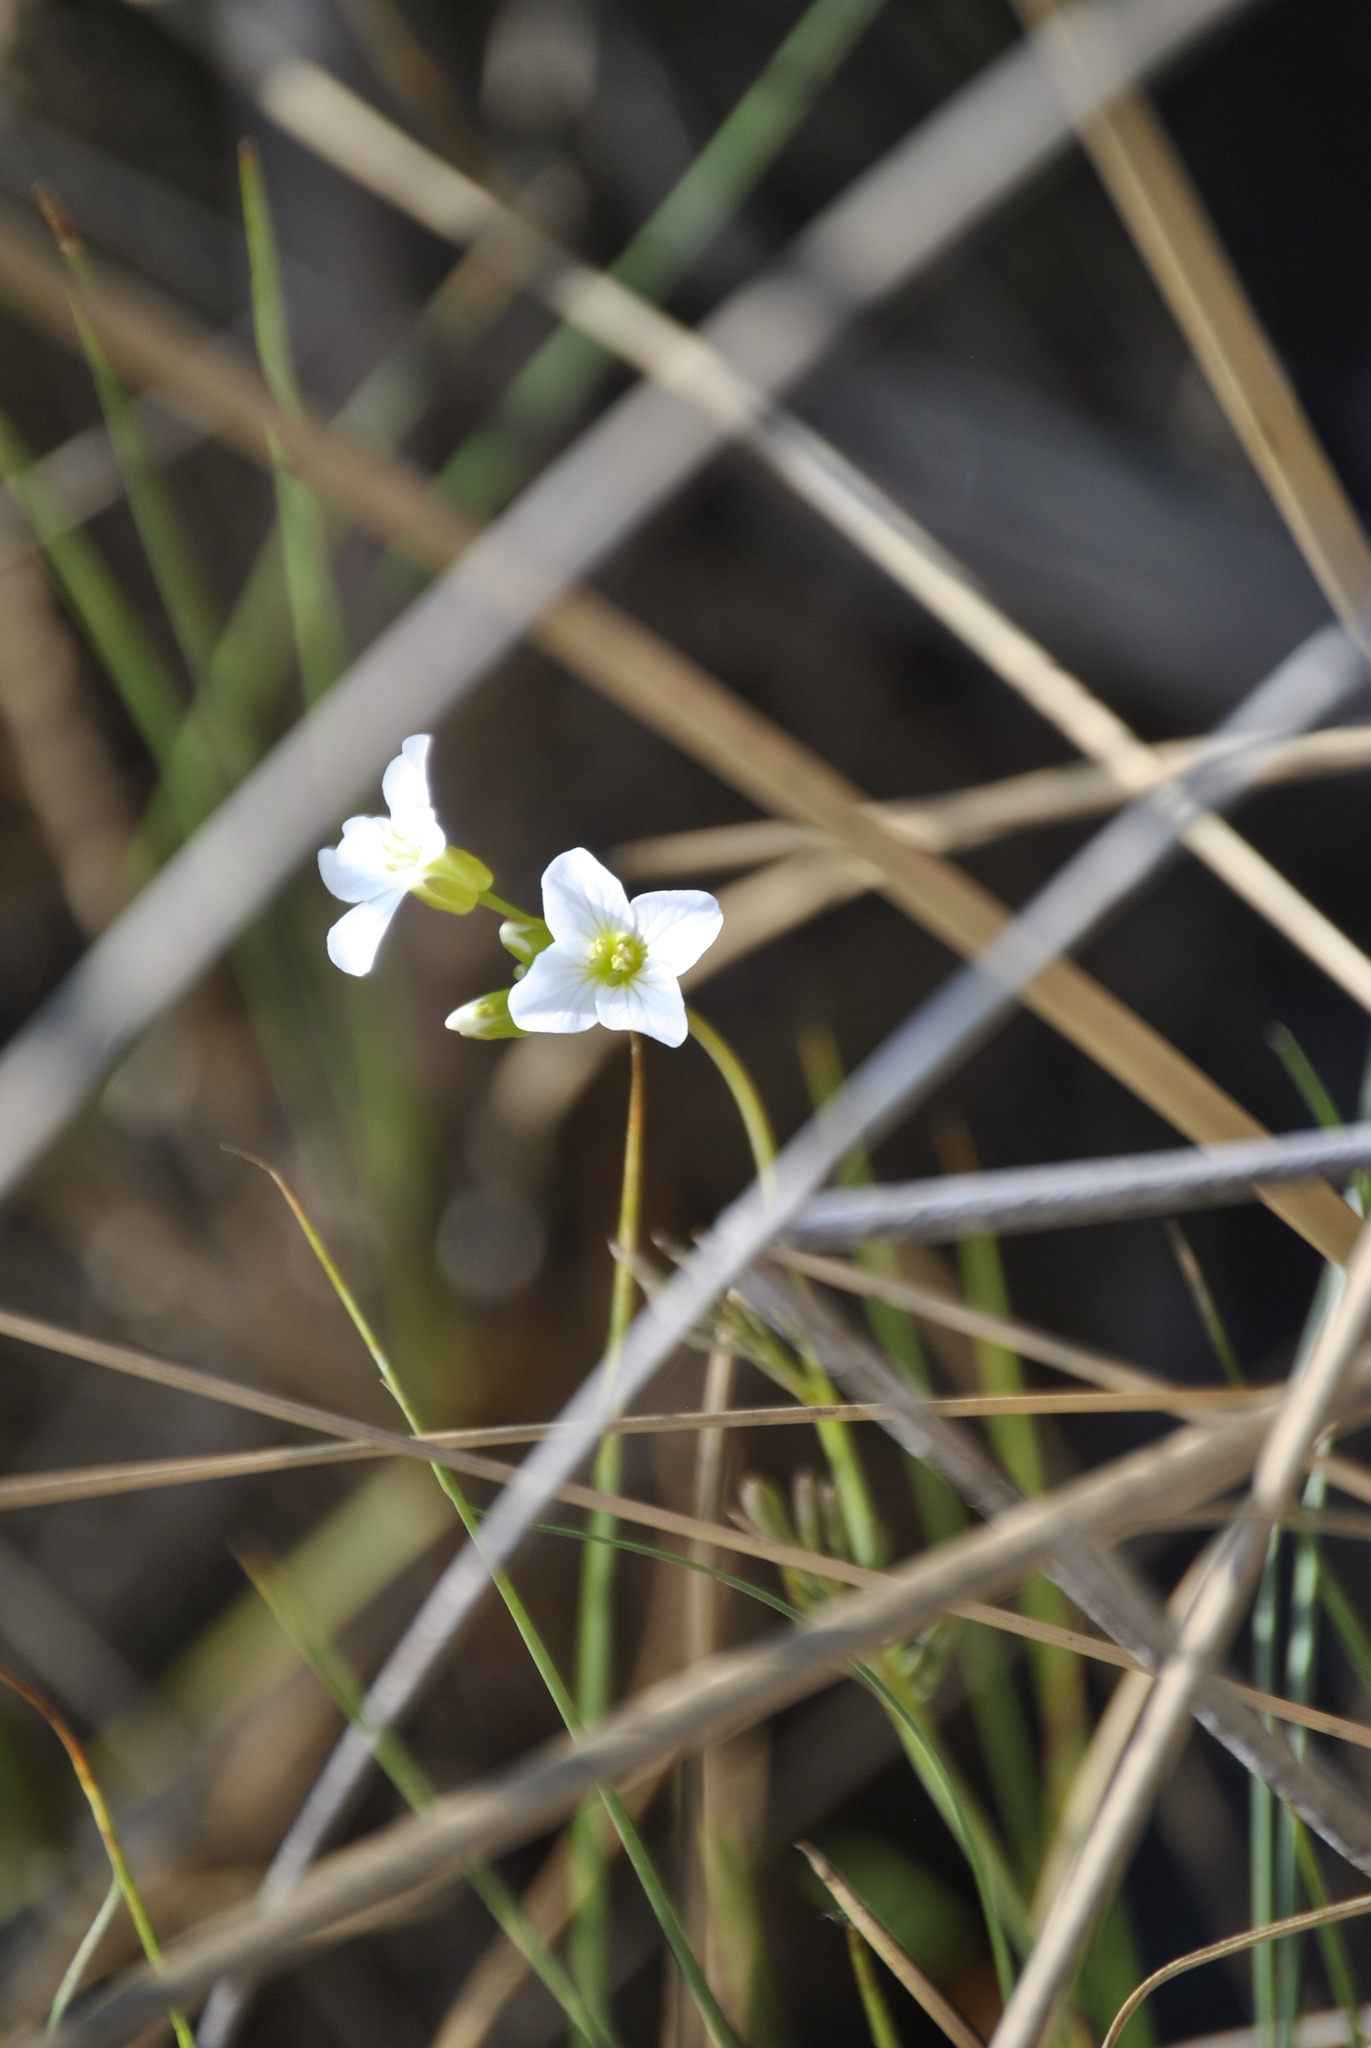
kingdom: Plantae
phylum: Tracheophyta
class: Magnoliopsida
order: Brassicales
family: Brassicaceae
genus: Cardamine
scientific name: Cardamine pratensis
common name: Cuckoo flower
